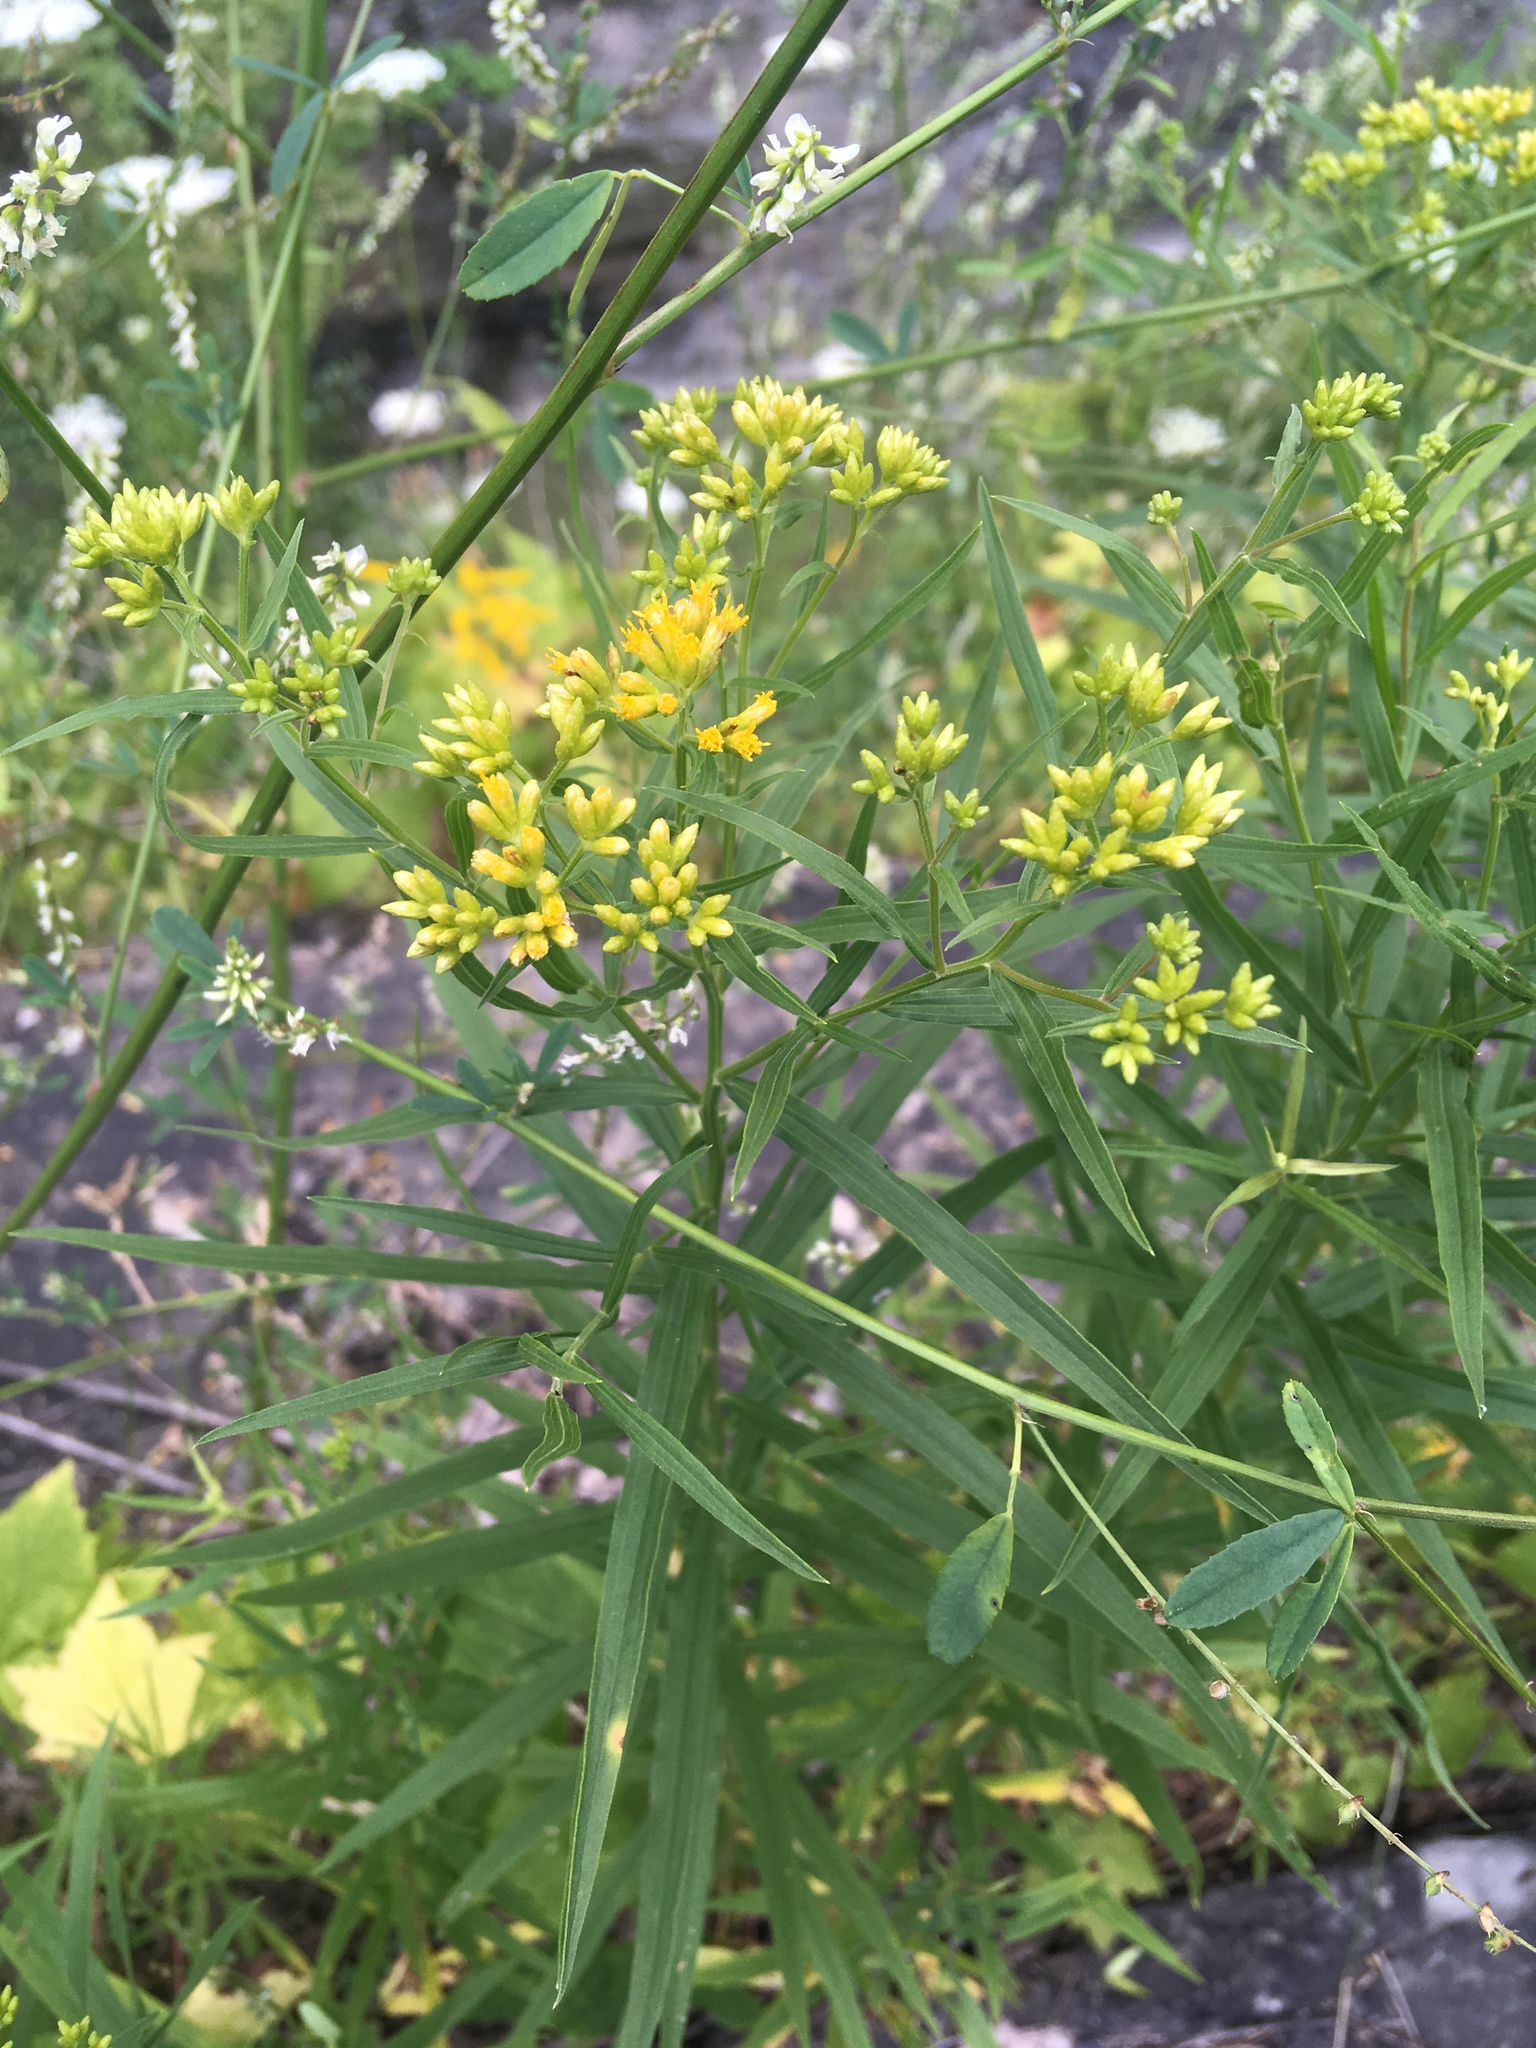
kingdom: Plantae
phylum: Tracheophyta
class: Magnoliopsida
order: Asterales
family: Asteraceae
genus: Euthamia
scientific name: Euthamia graminifolia
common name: Common goldentop
